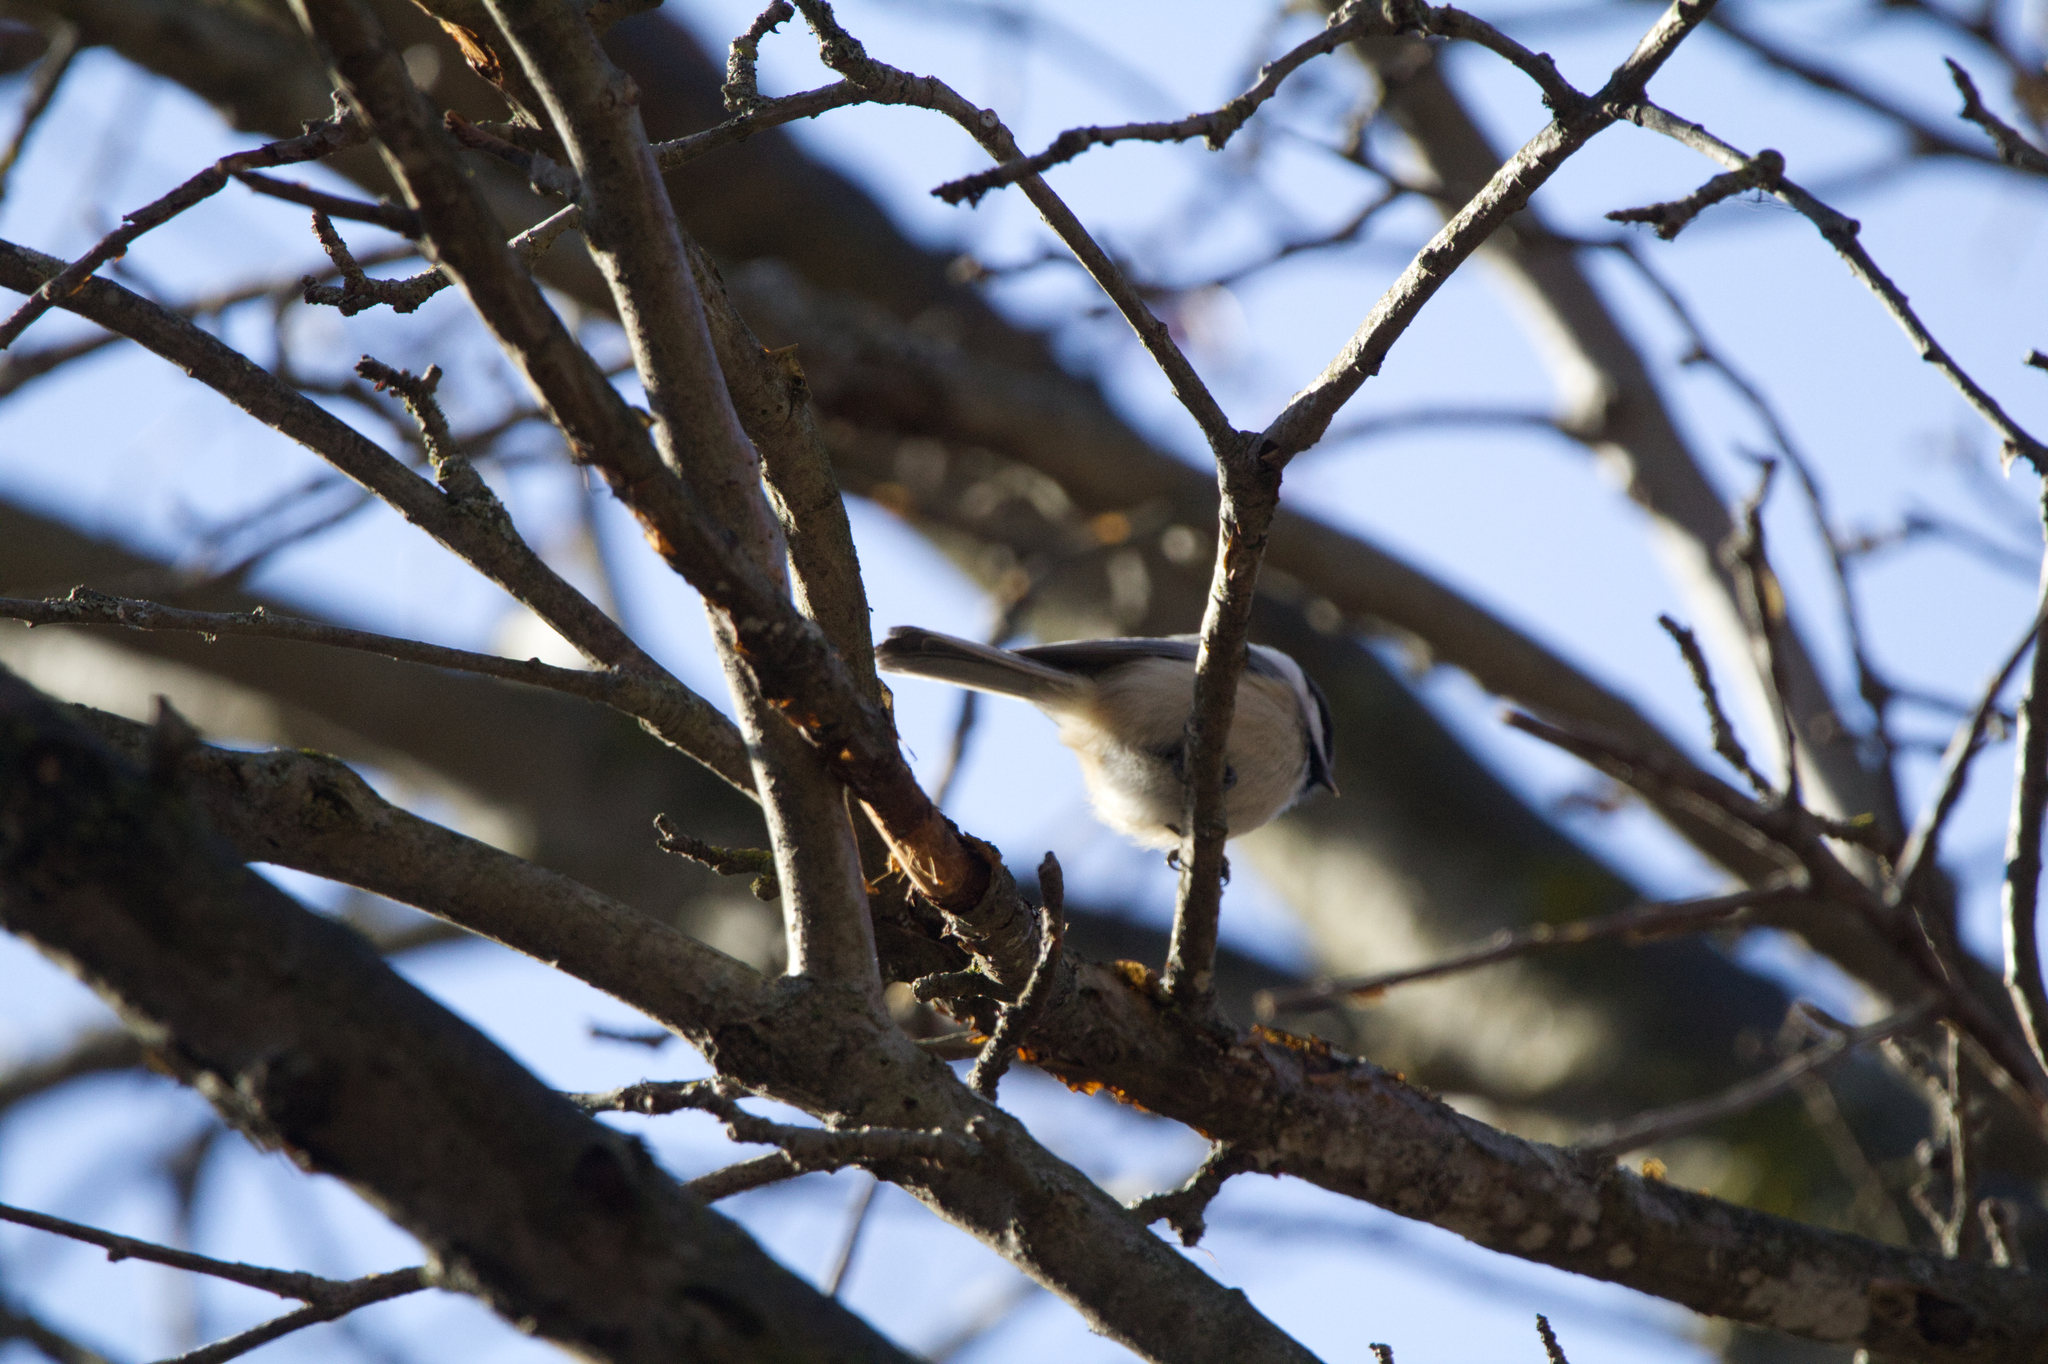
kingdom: Animalia
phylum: Chordata
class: Aves
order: Passeriformes
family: Paridae
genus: Poecile
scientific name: Poecile atricapillus
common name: Black-capped chickadee
